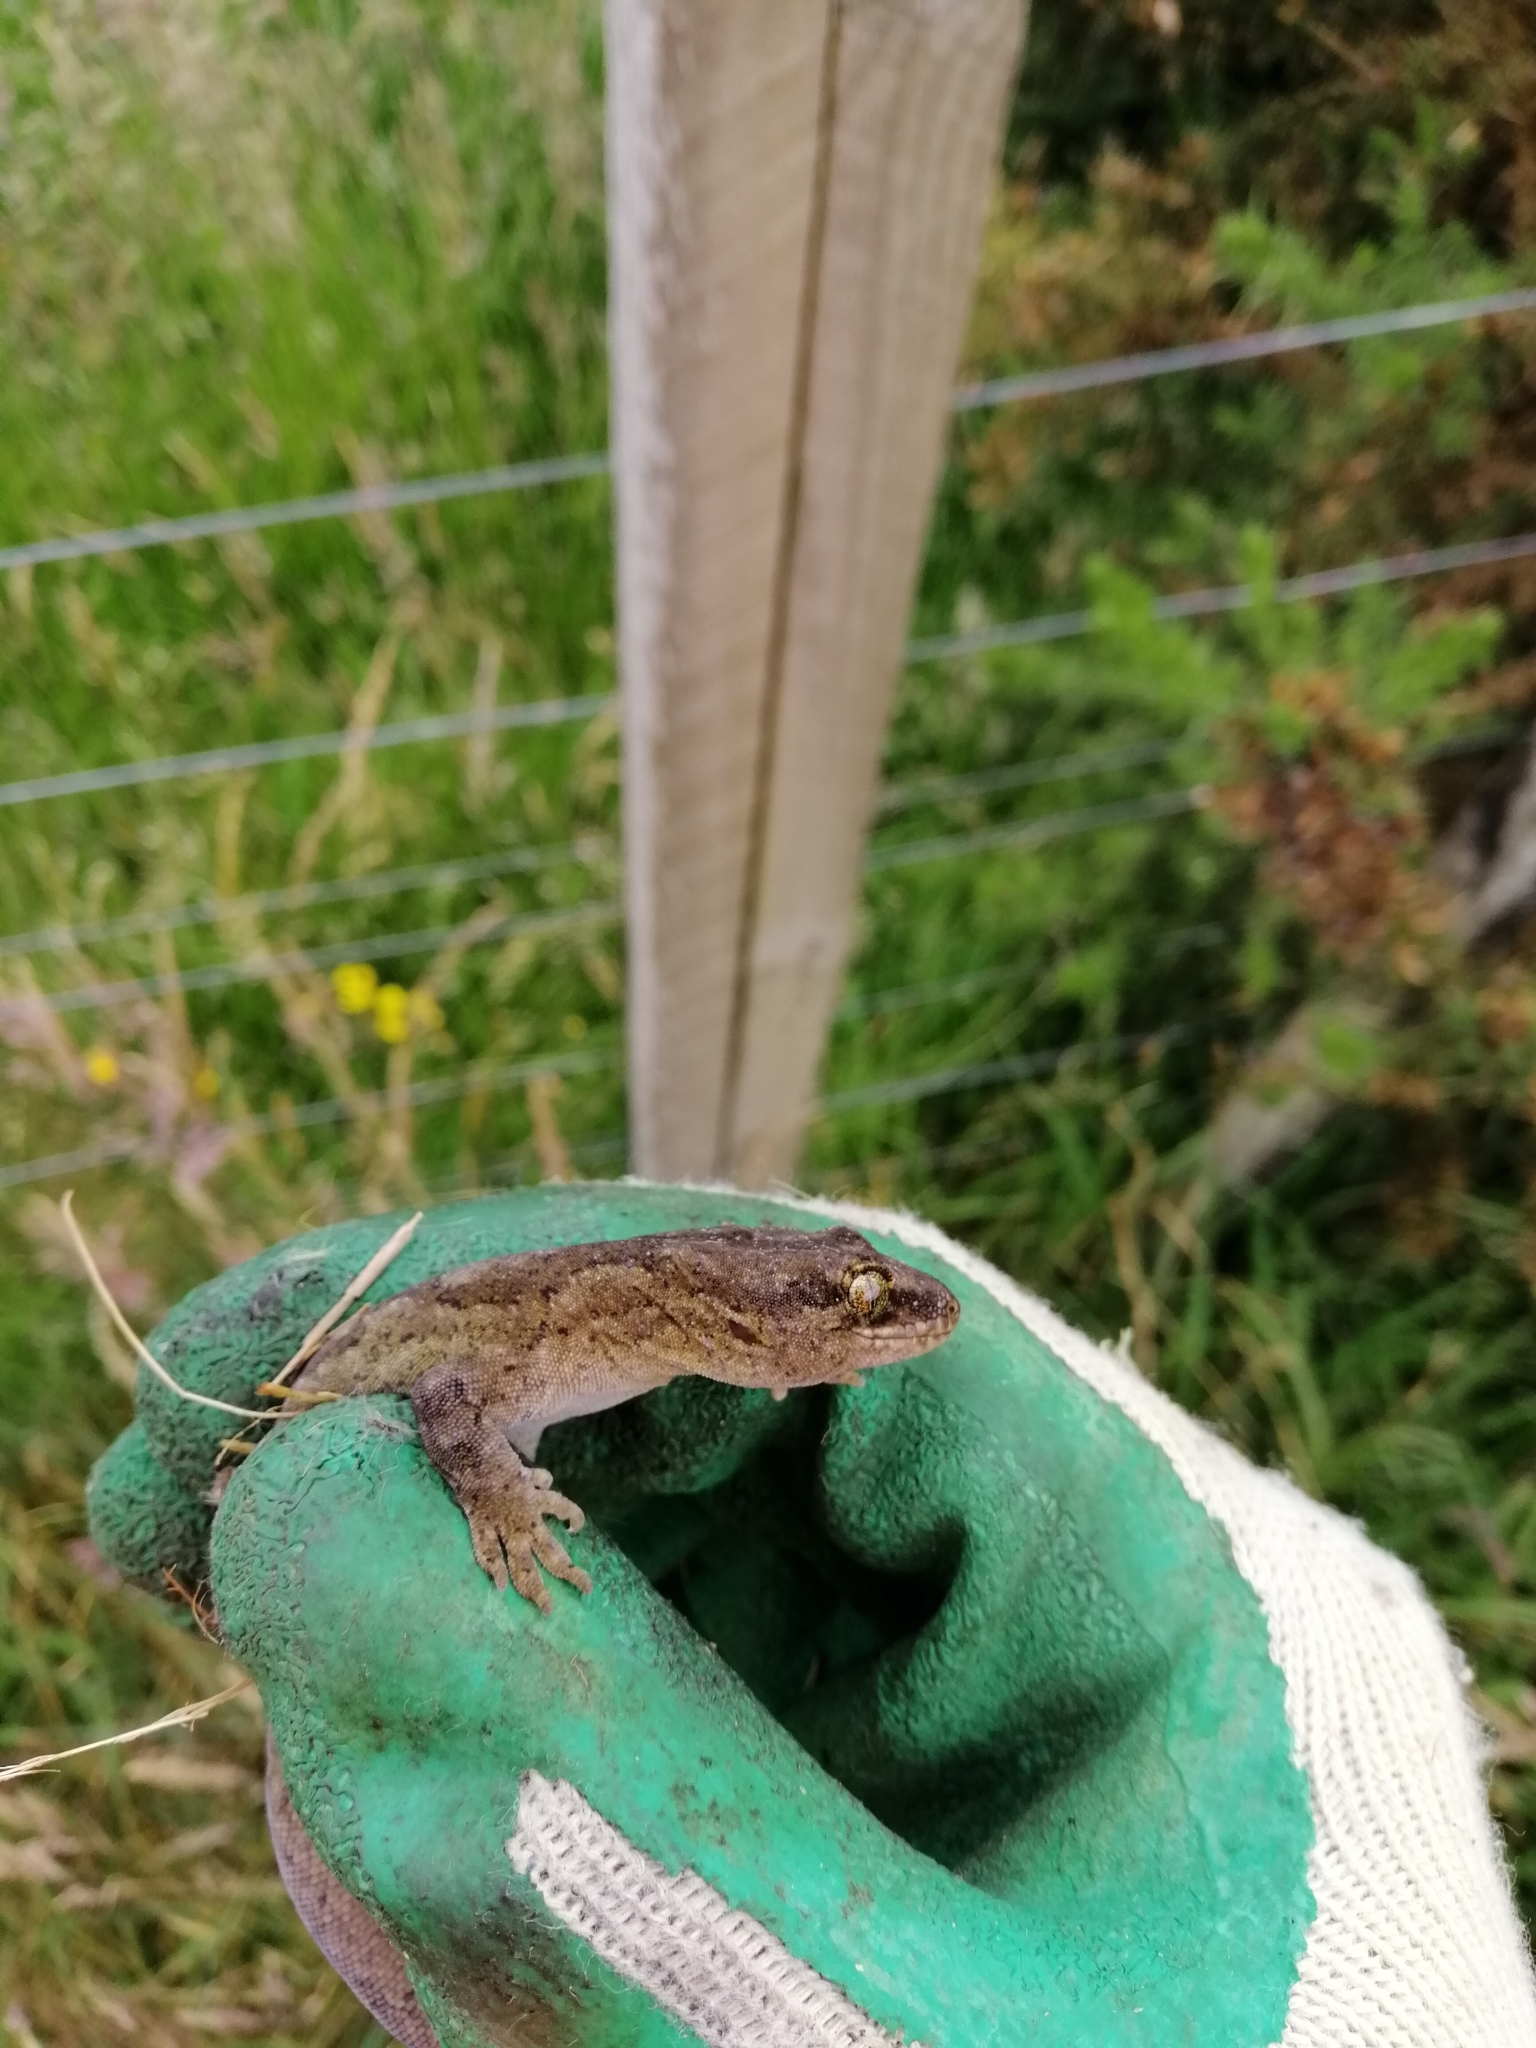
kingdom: Animalia
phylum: Chordata
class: Squamata
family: Diplodactylidae
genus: Woodworthia
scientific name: Woodworthia maculata
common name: Raukawa gecko
